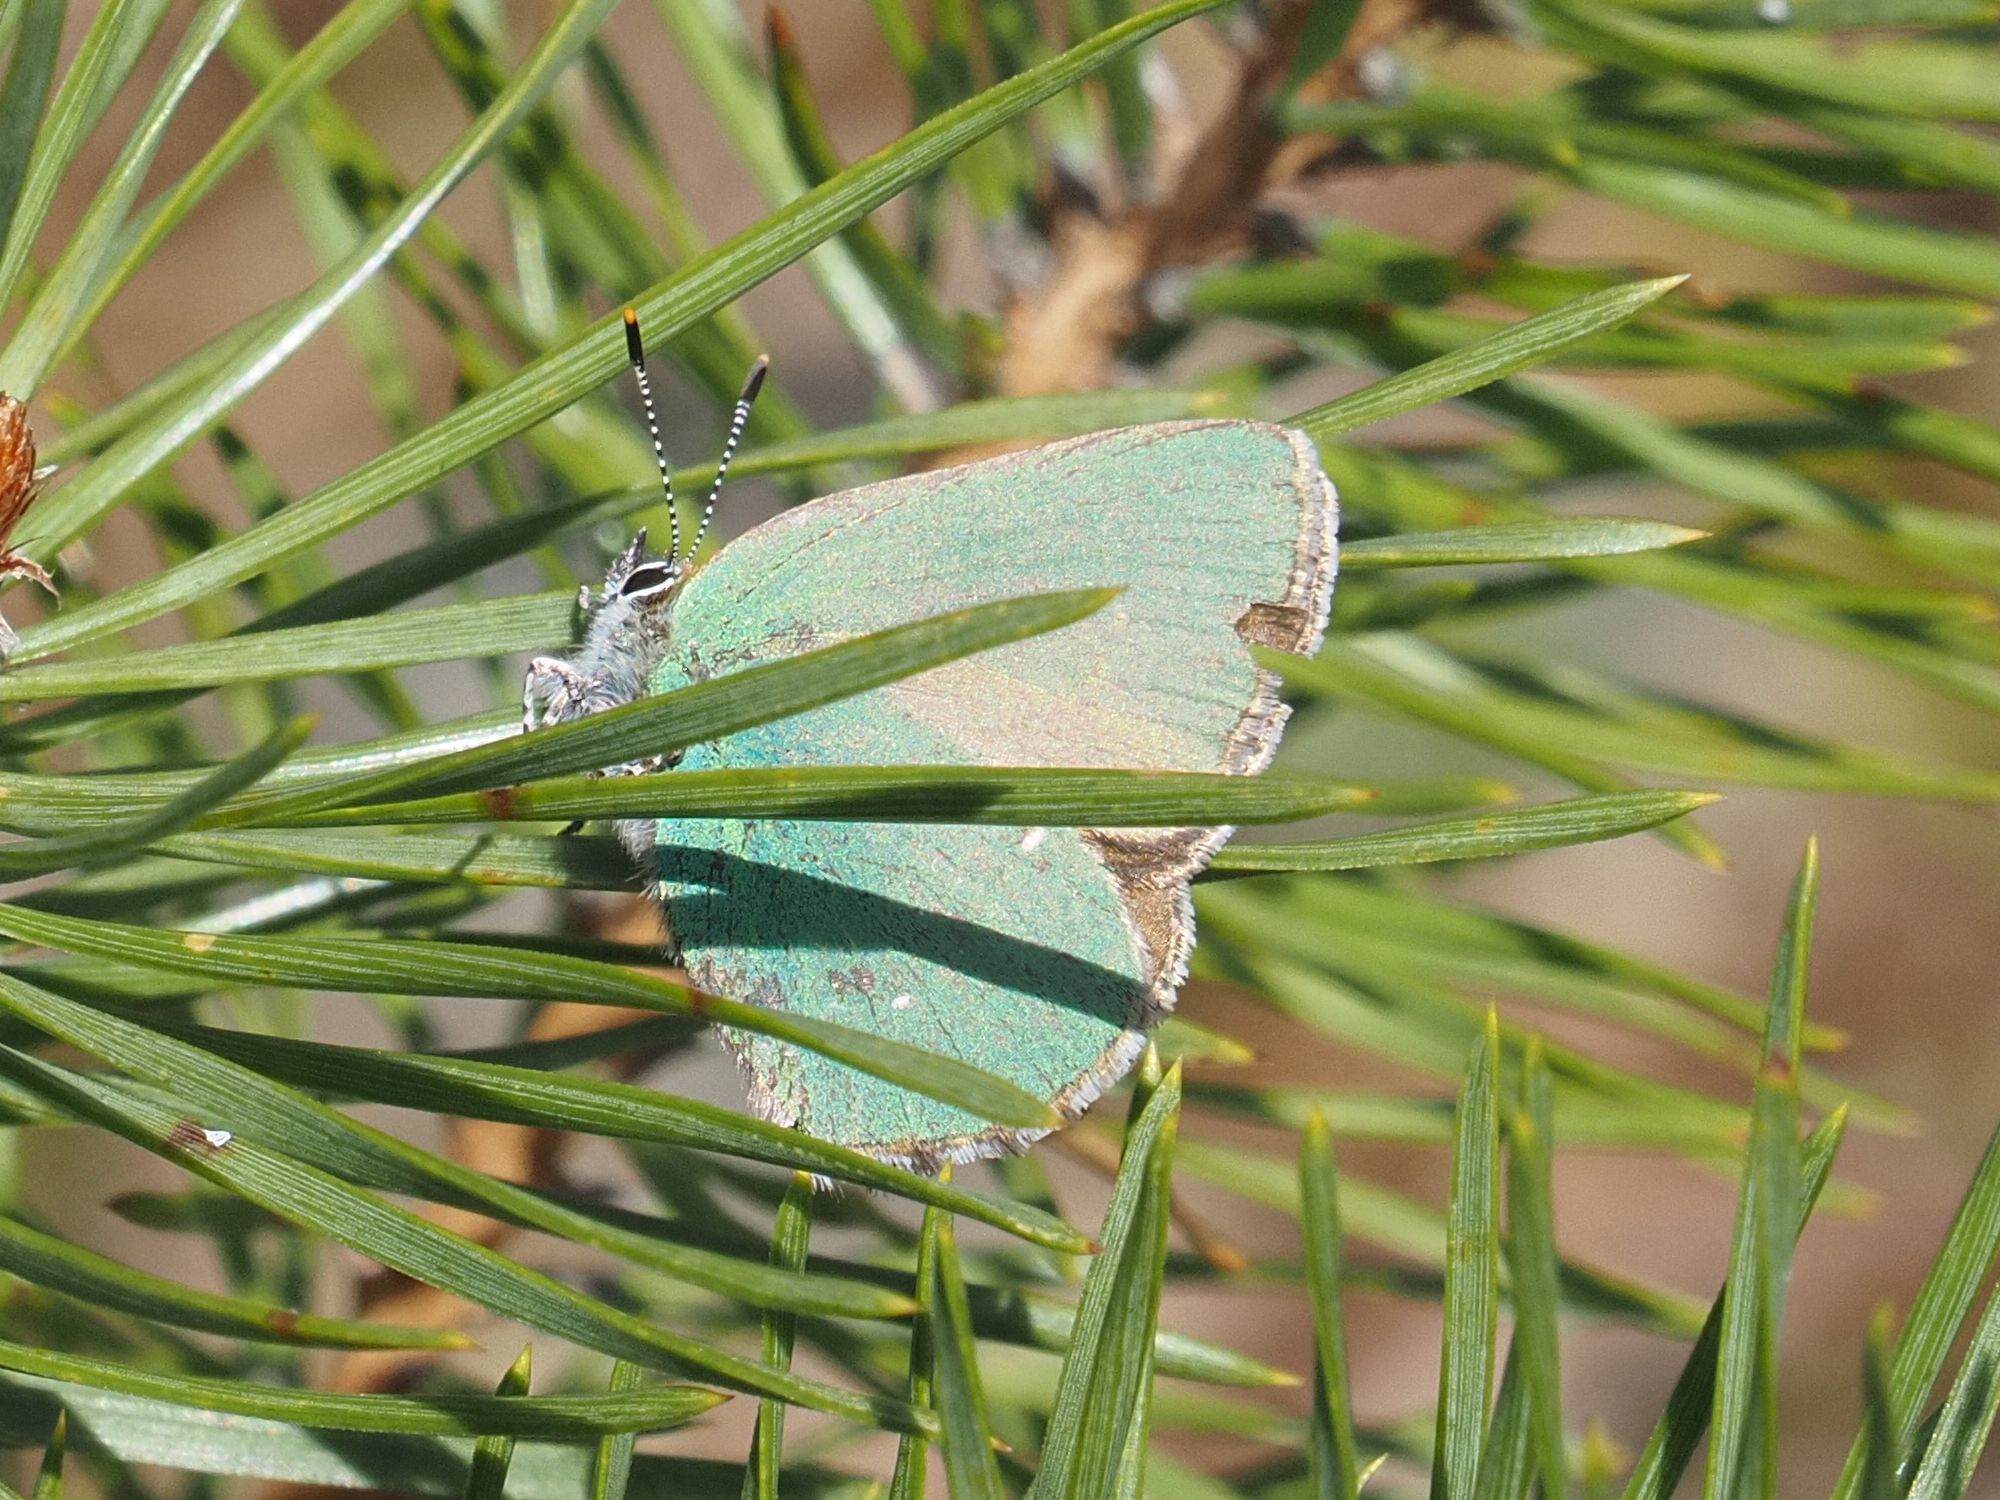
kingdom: Animalia
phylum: Arthropoda
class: Insecta
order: Lepidoptera
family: Lycaenidae
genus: Callophrys
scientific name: Callophrys rubi
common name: Green hairstreak
